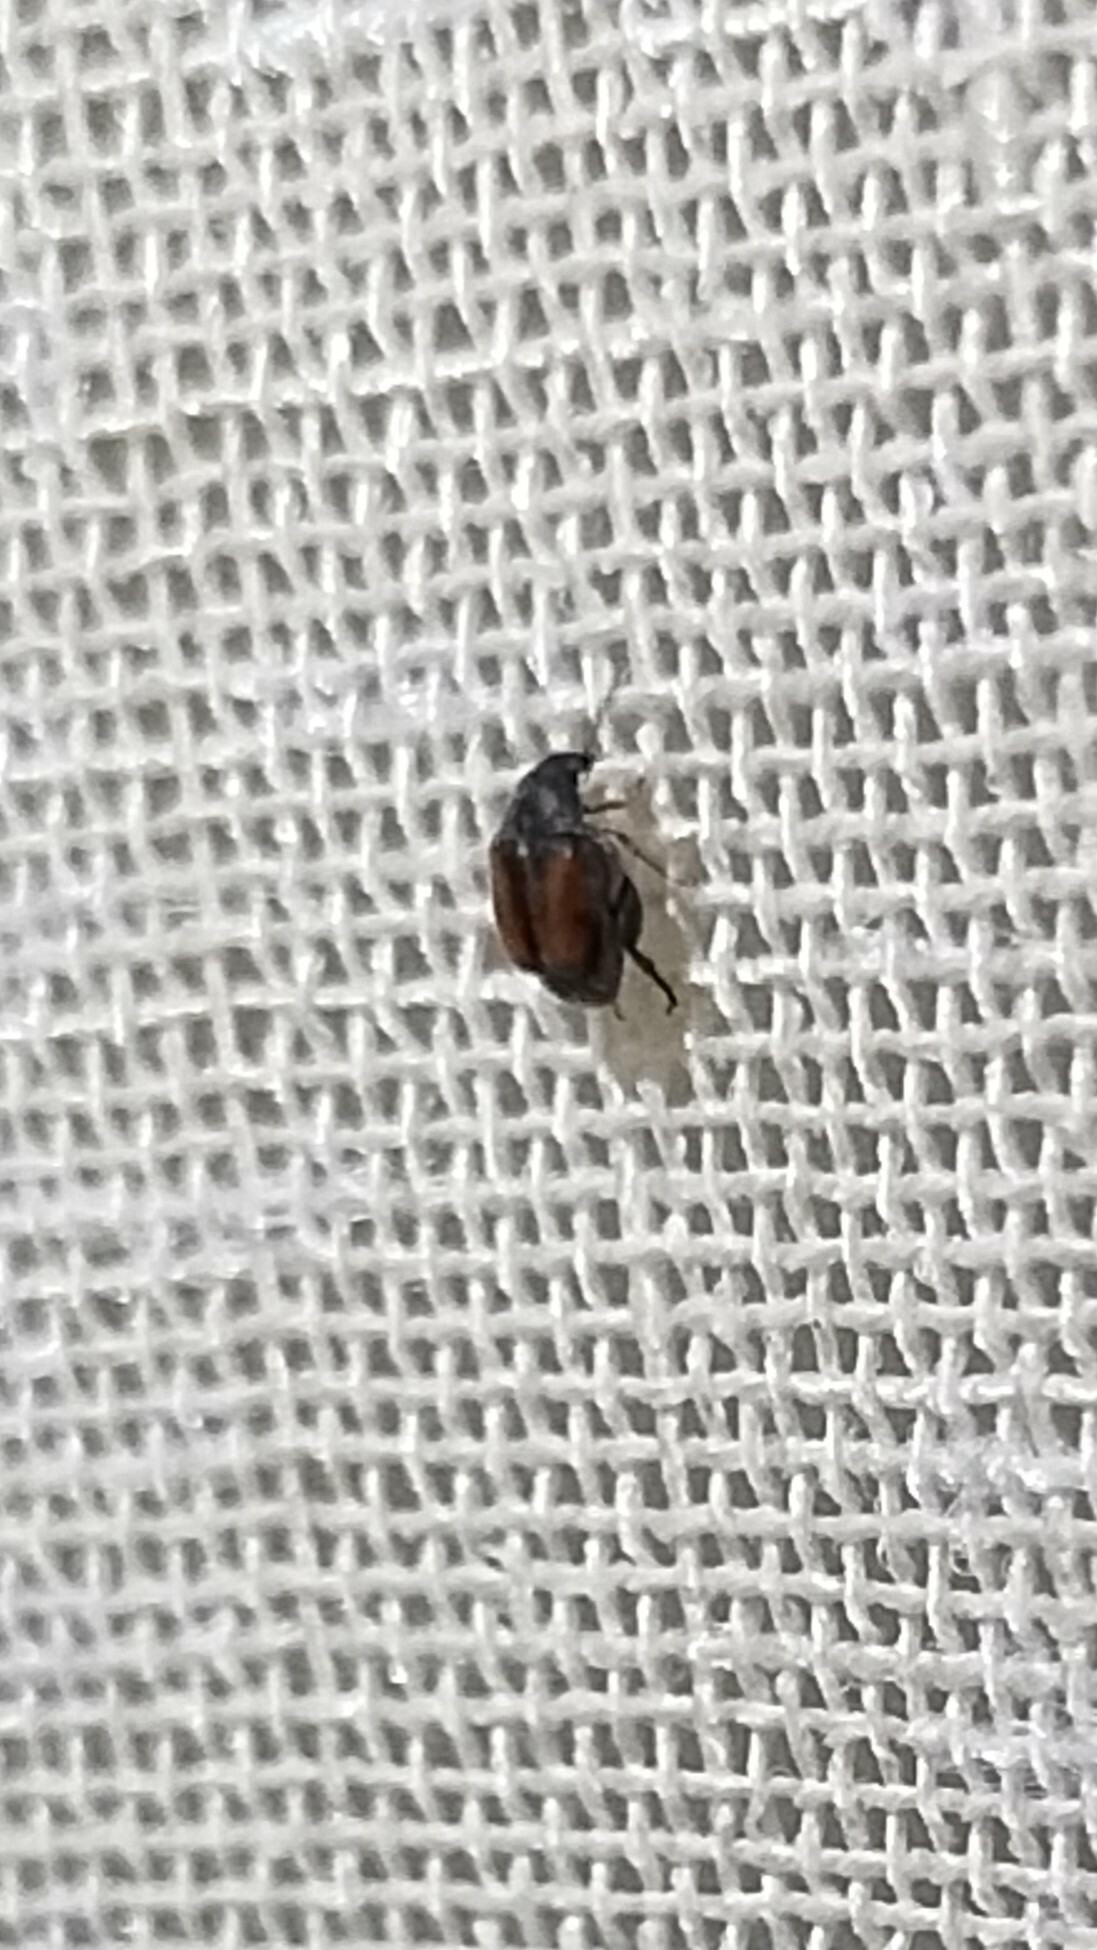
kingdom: Animalia
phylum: Arthropoda
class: Insecta
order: Coleoptera
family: Chrysomelidae
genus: Stator
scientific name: Stator limbatus
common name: Leaf beetle
